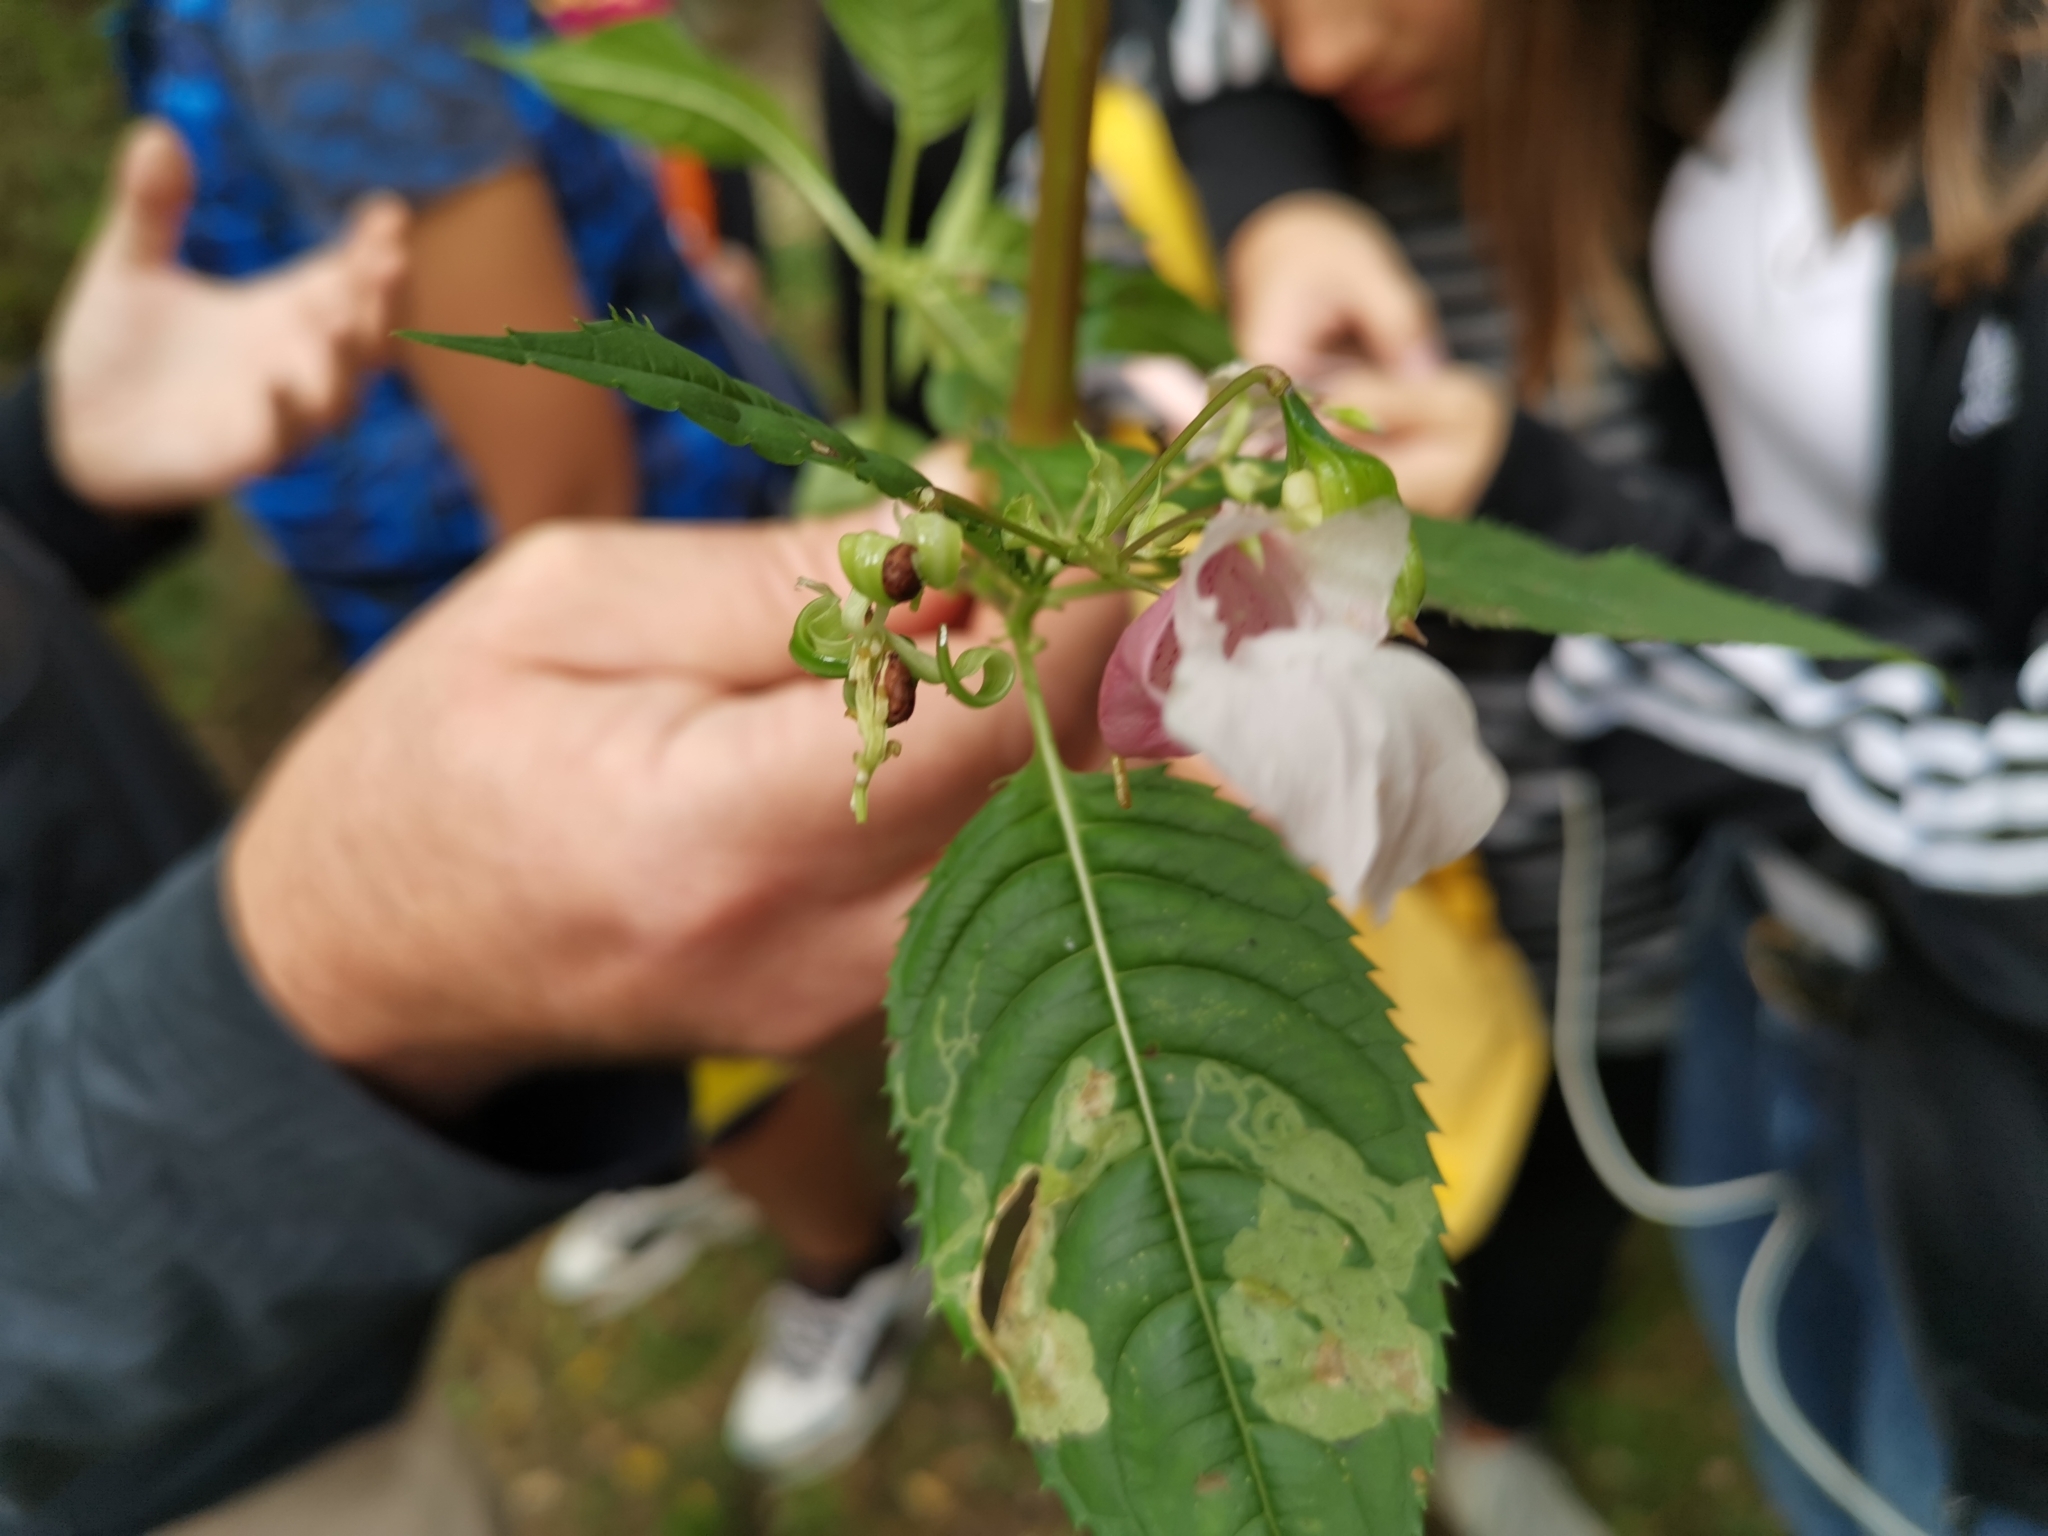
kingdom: Plantae
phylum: Tracheophyta
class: Magnoliopsida
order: Ericales
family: Balsaminaceae
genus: Impatiens
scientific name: Impatiens glandulifera
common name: Himalayan balsam
